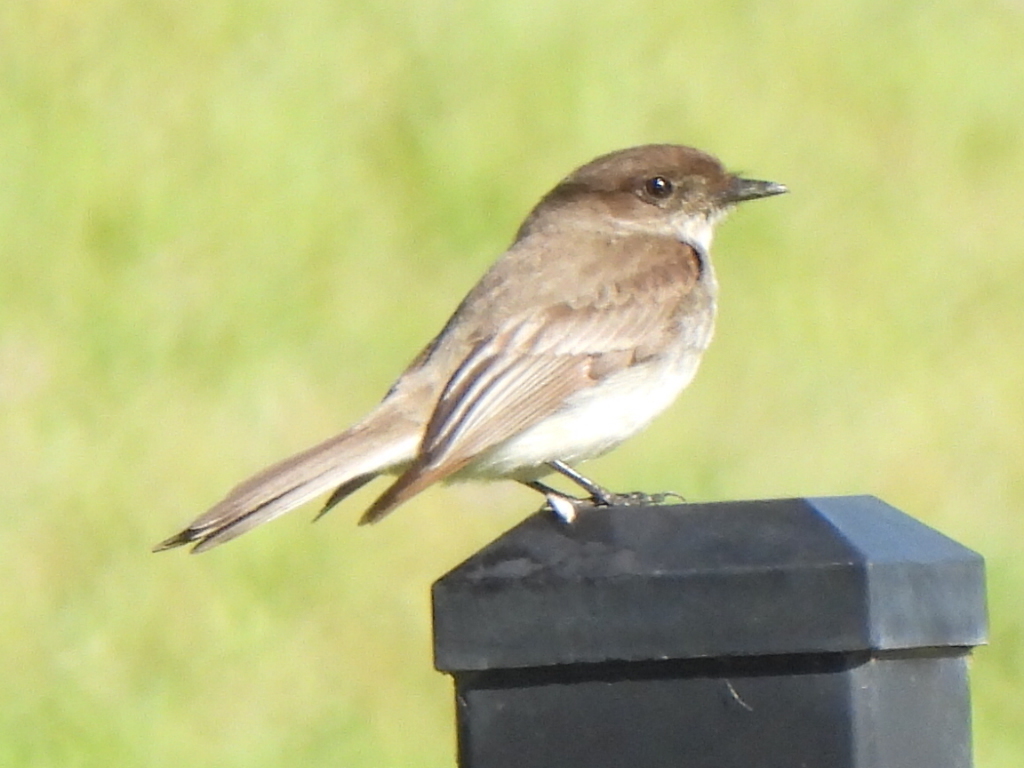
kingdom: Animalia
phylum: Chordata
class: Aves
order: Passeriformes
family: Tyrannidae
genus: Sayornis
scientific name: Sayornis phoebe
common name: Eastern phoebe
